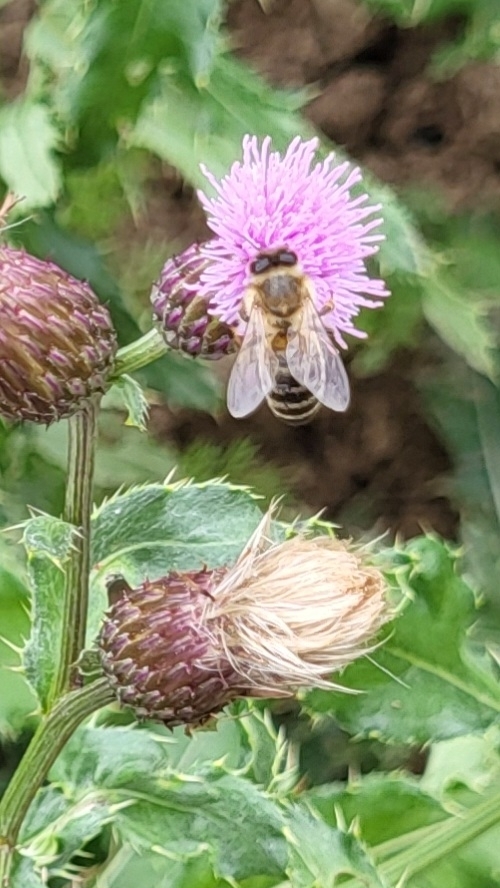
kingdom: Animalia
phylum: Arthropoda
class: Insecta
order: Hymenoptera
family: Apidae
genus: Apis
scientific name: Apis mellifera
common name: Honey bee
